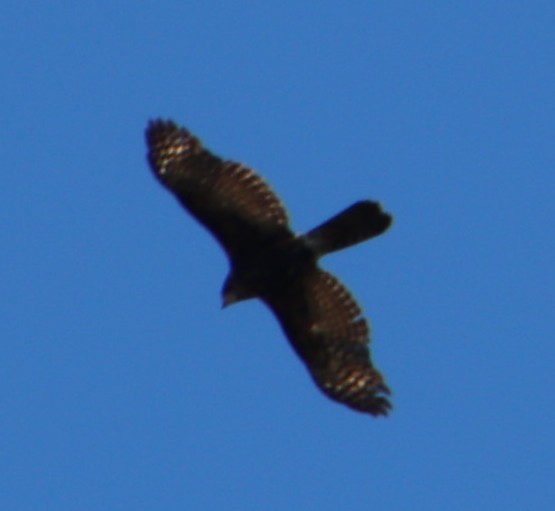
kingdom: Animalia
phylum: Chordata
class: Aves
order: Accipitriformes
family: Accipitridae
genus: Accipiter
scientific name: Accipiter melanoleucus
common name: Black sparrowhawk
